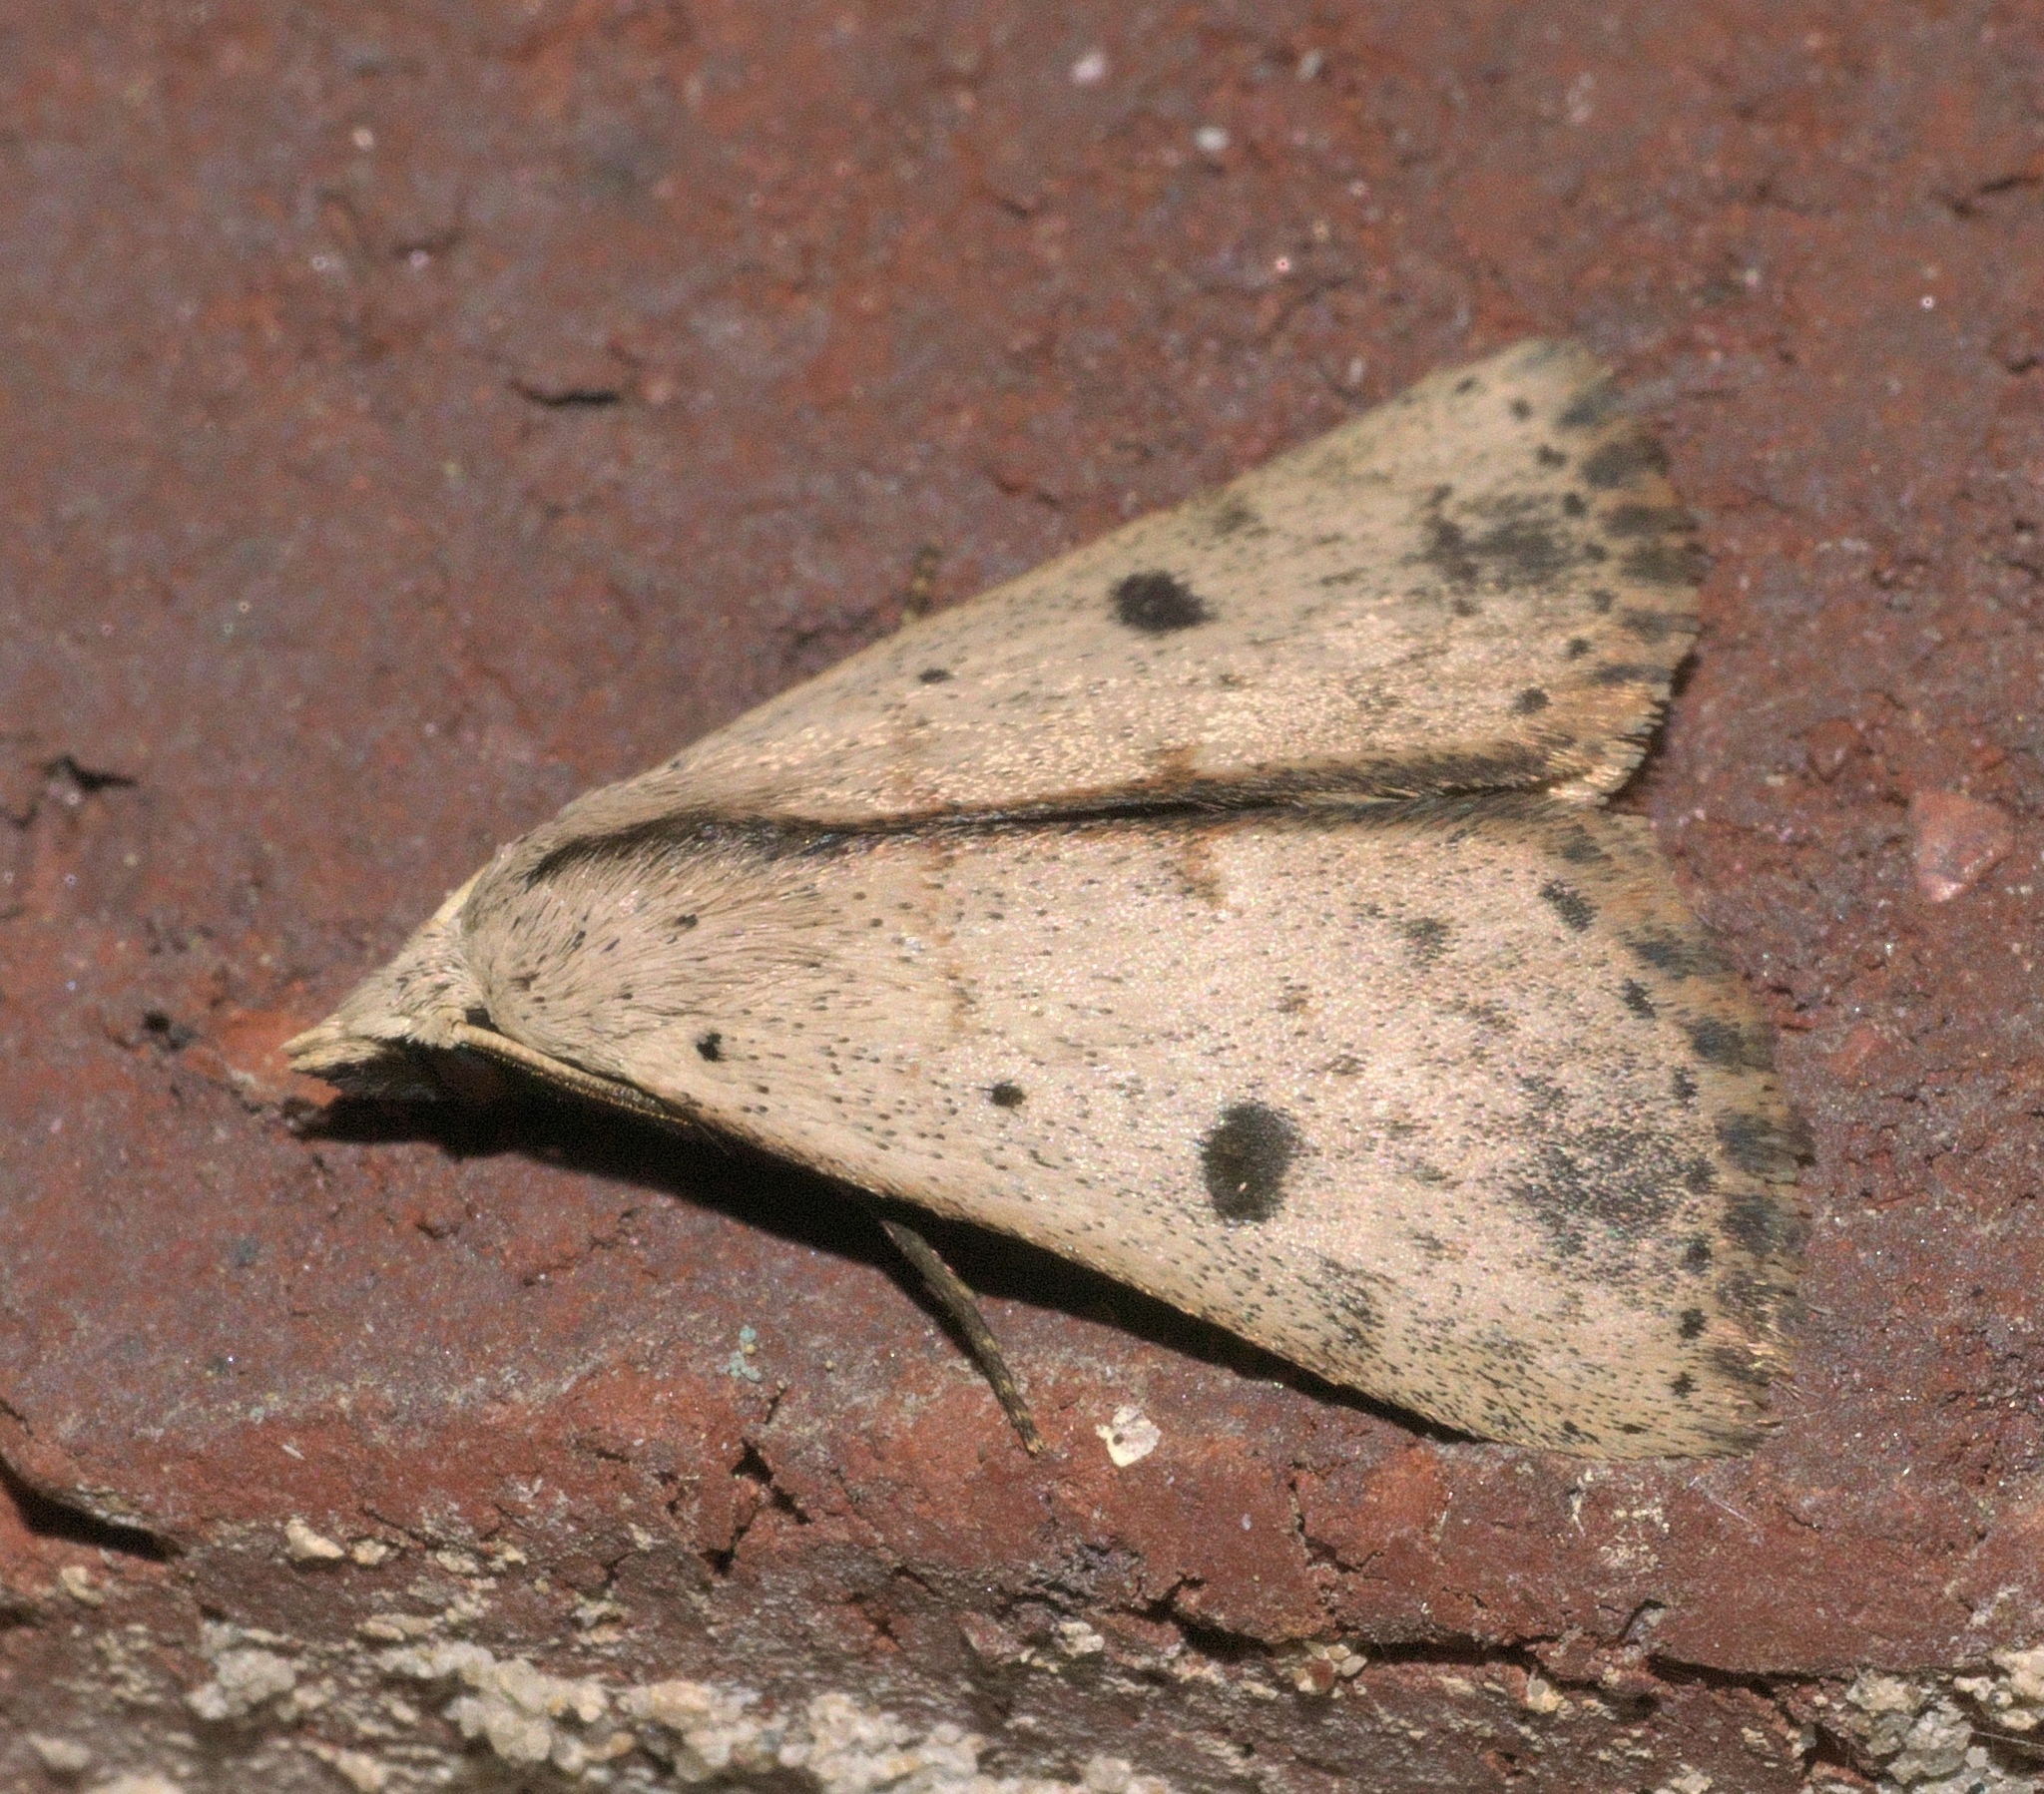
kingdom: Animalia
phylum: Arthropoda
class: Insecta
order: Lepidoptera
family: Erebidae
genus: Scolecocampa
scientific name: Scolecocampa liburna
